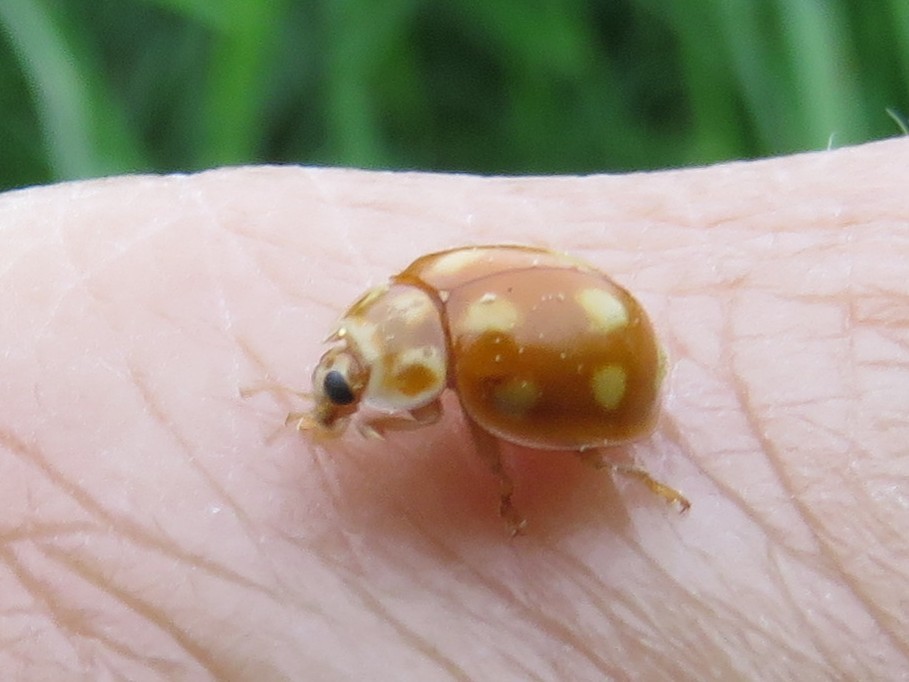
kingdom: Animalia
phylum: Arthropoda
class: Insecta
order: Coleoptera
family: Coccinellidae
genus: Calvia
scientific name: Calvia decemguttata
